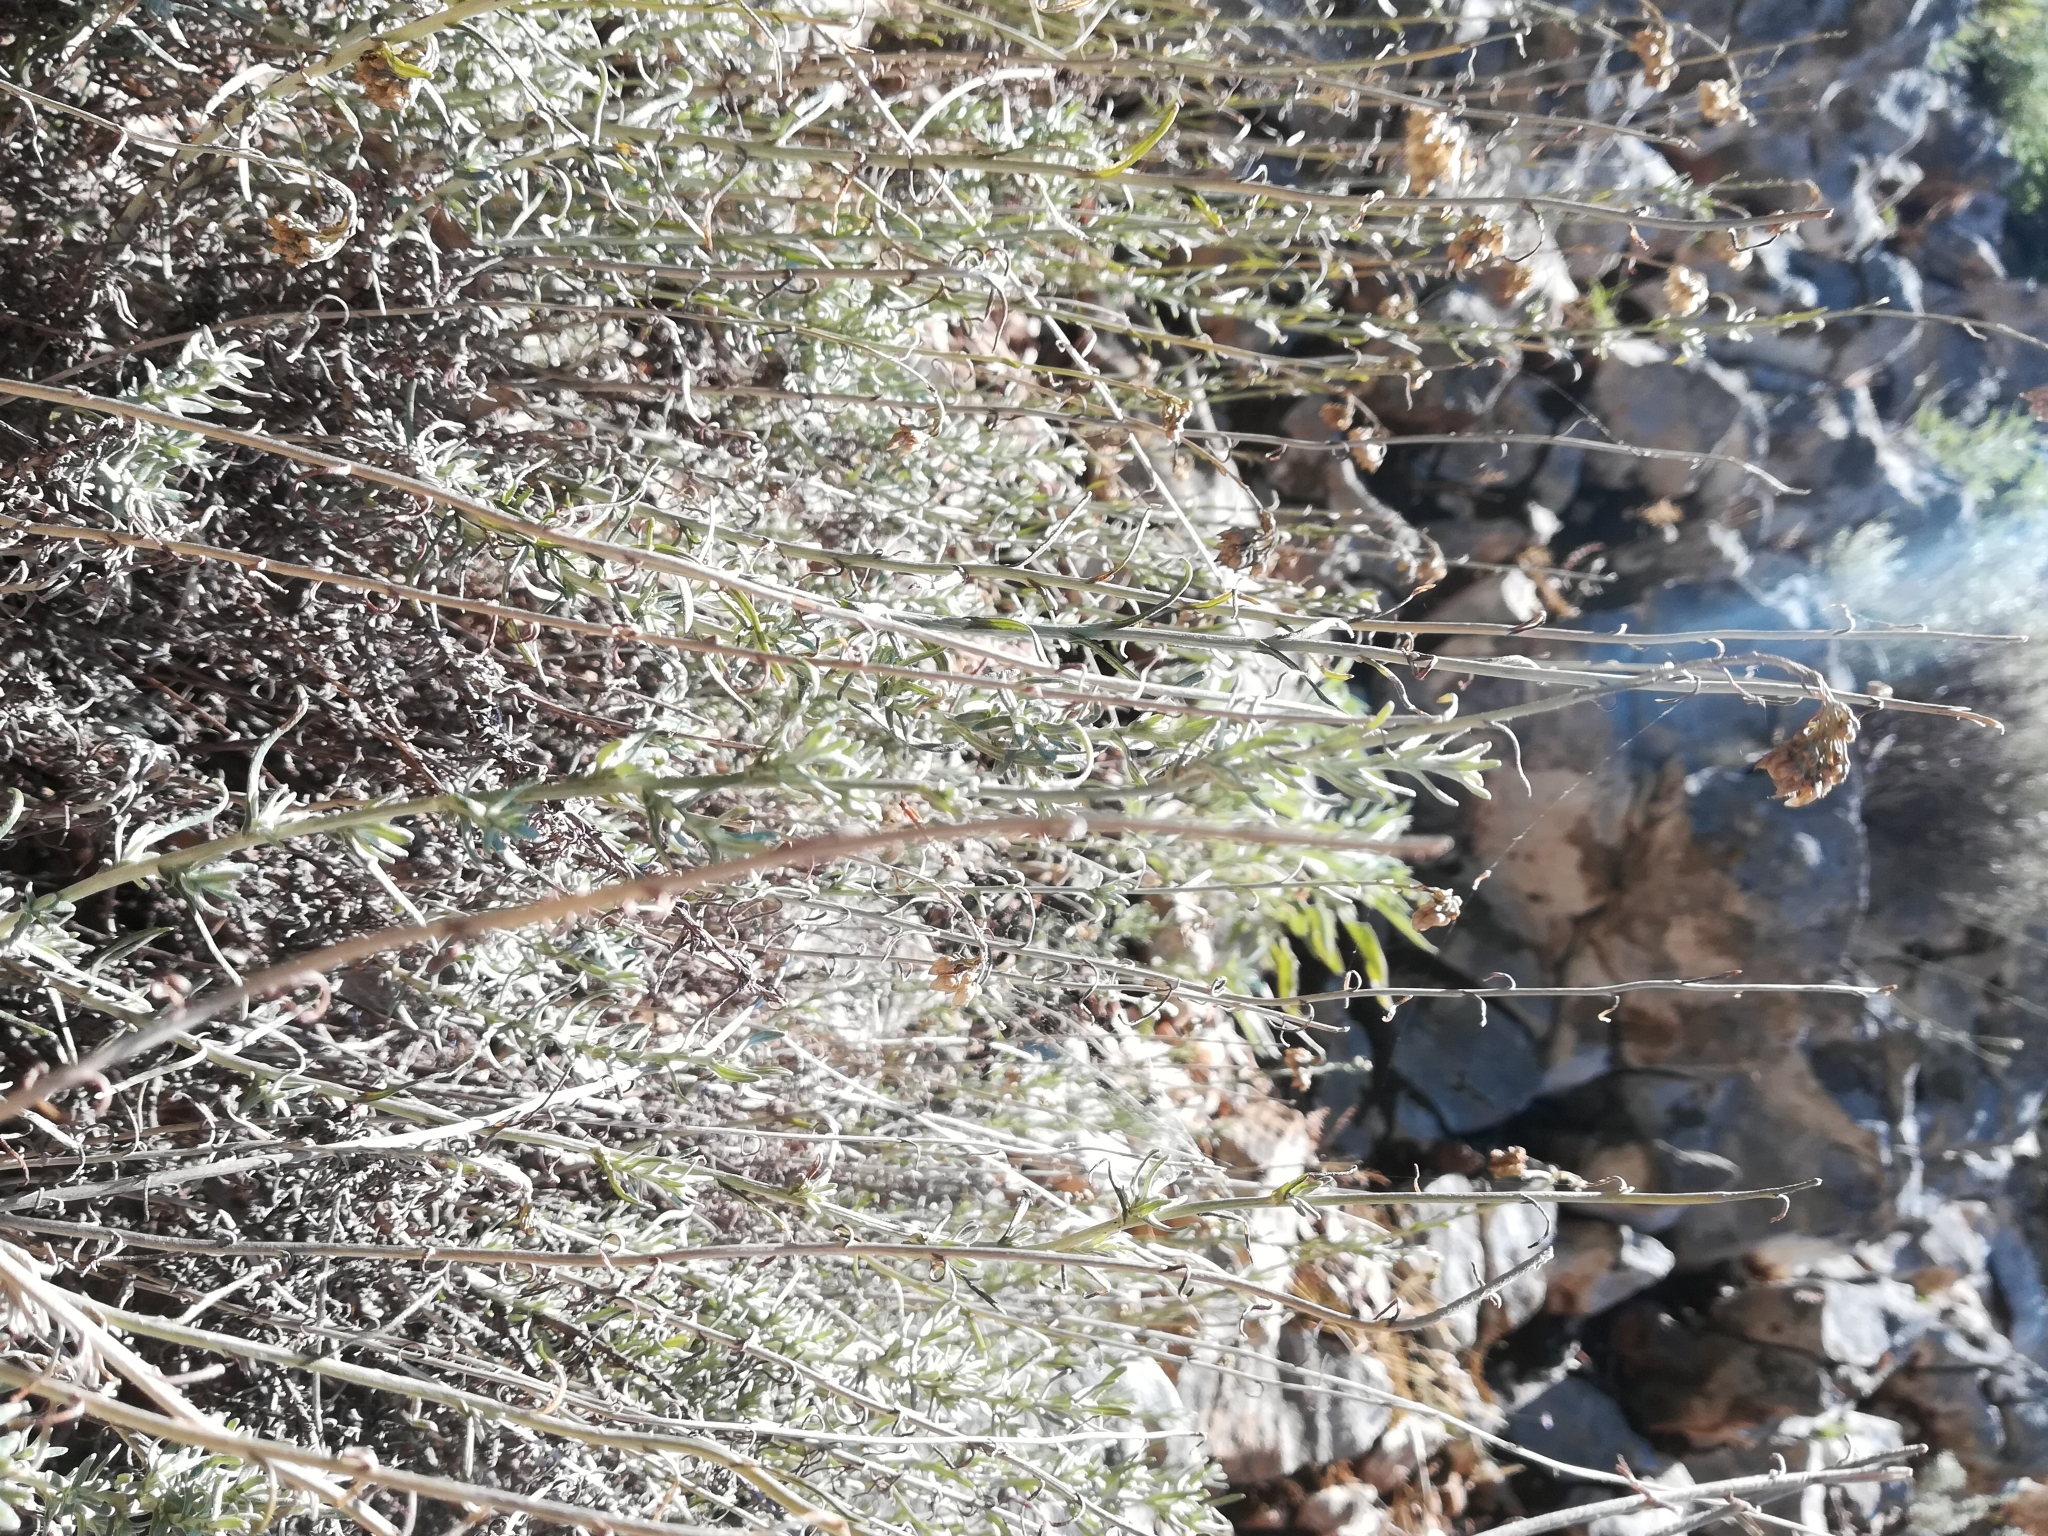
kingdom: Plantae
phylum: Tracheophyta
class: Magnoliopsida
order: Asterales
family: Asteraceae
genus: Helichrysum
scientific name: Helichrysum italicum
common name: Curryplant
